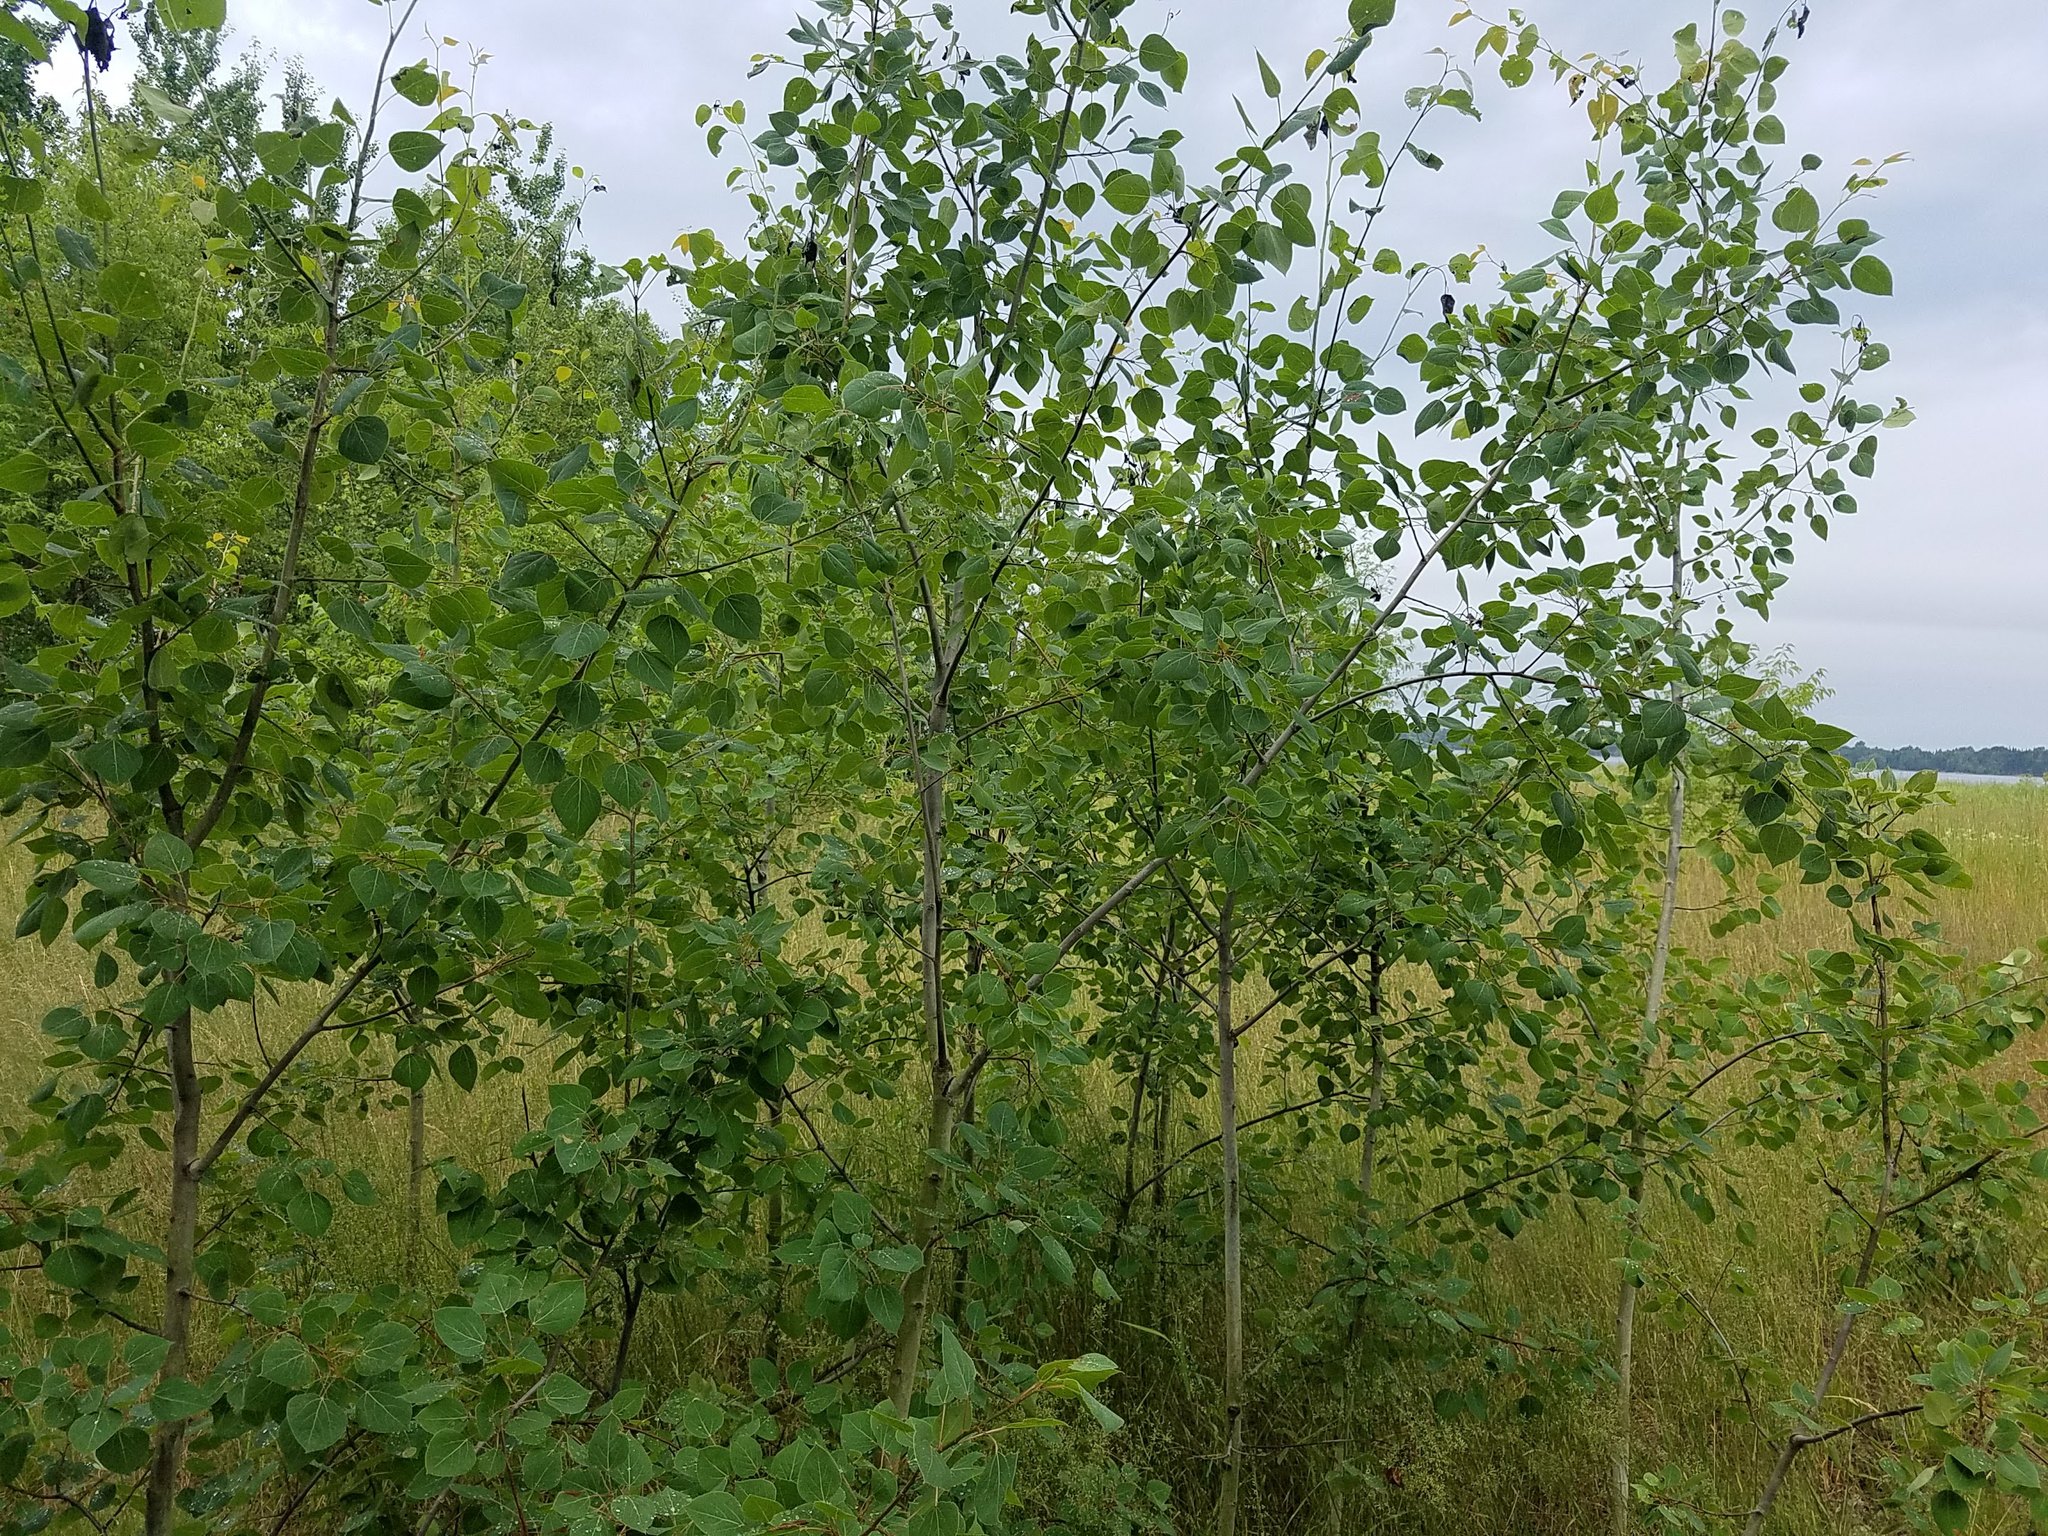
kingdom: Plantae
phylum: Tracheophyta
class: Magnoliopsida
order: Malpighiales
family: Salicaceae
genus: Populus
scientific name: Populus tremuloides
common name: Quaking aspen
